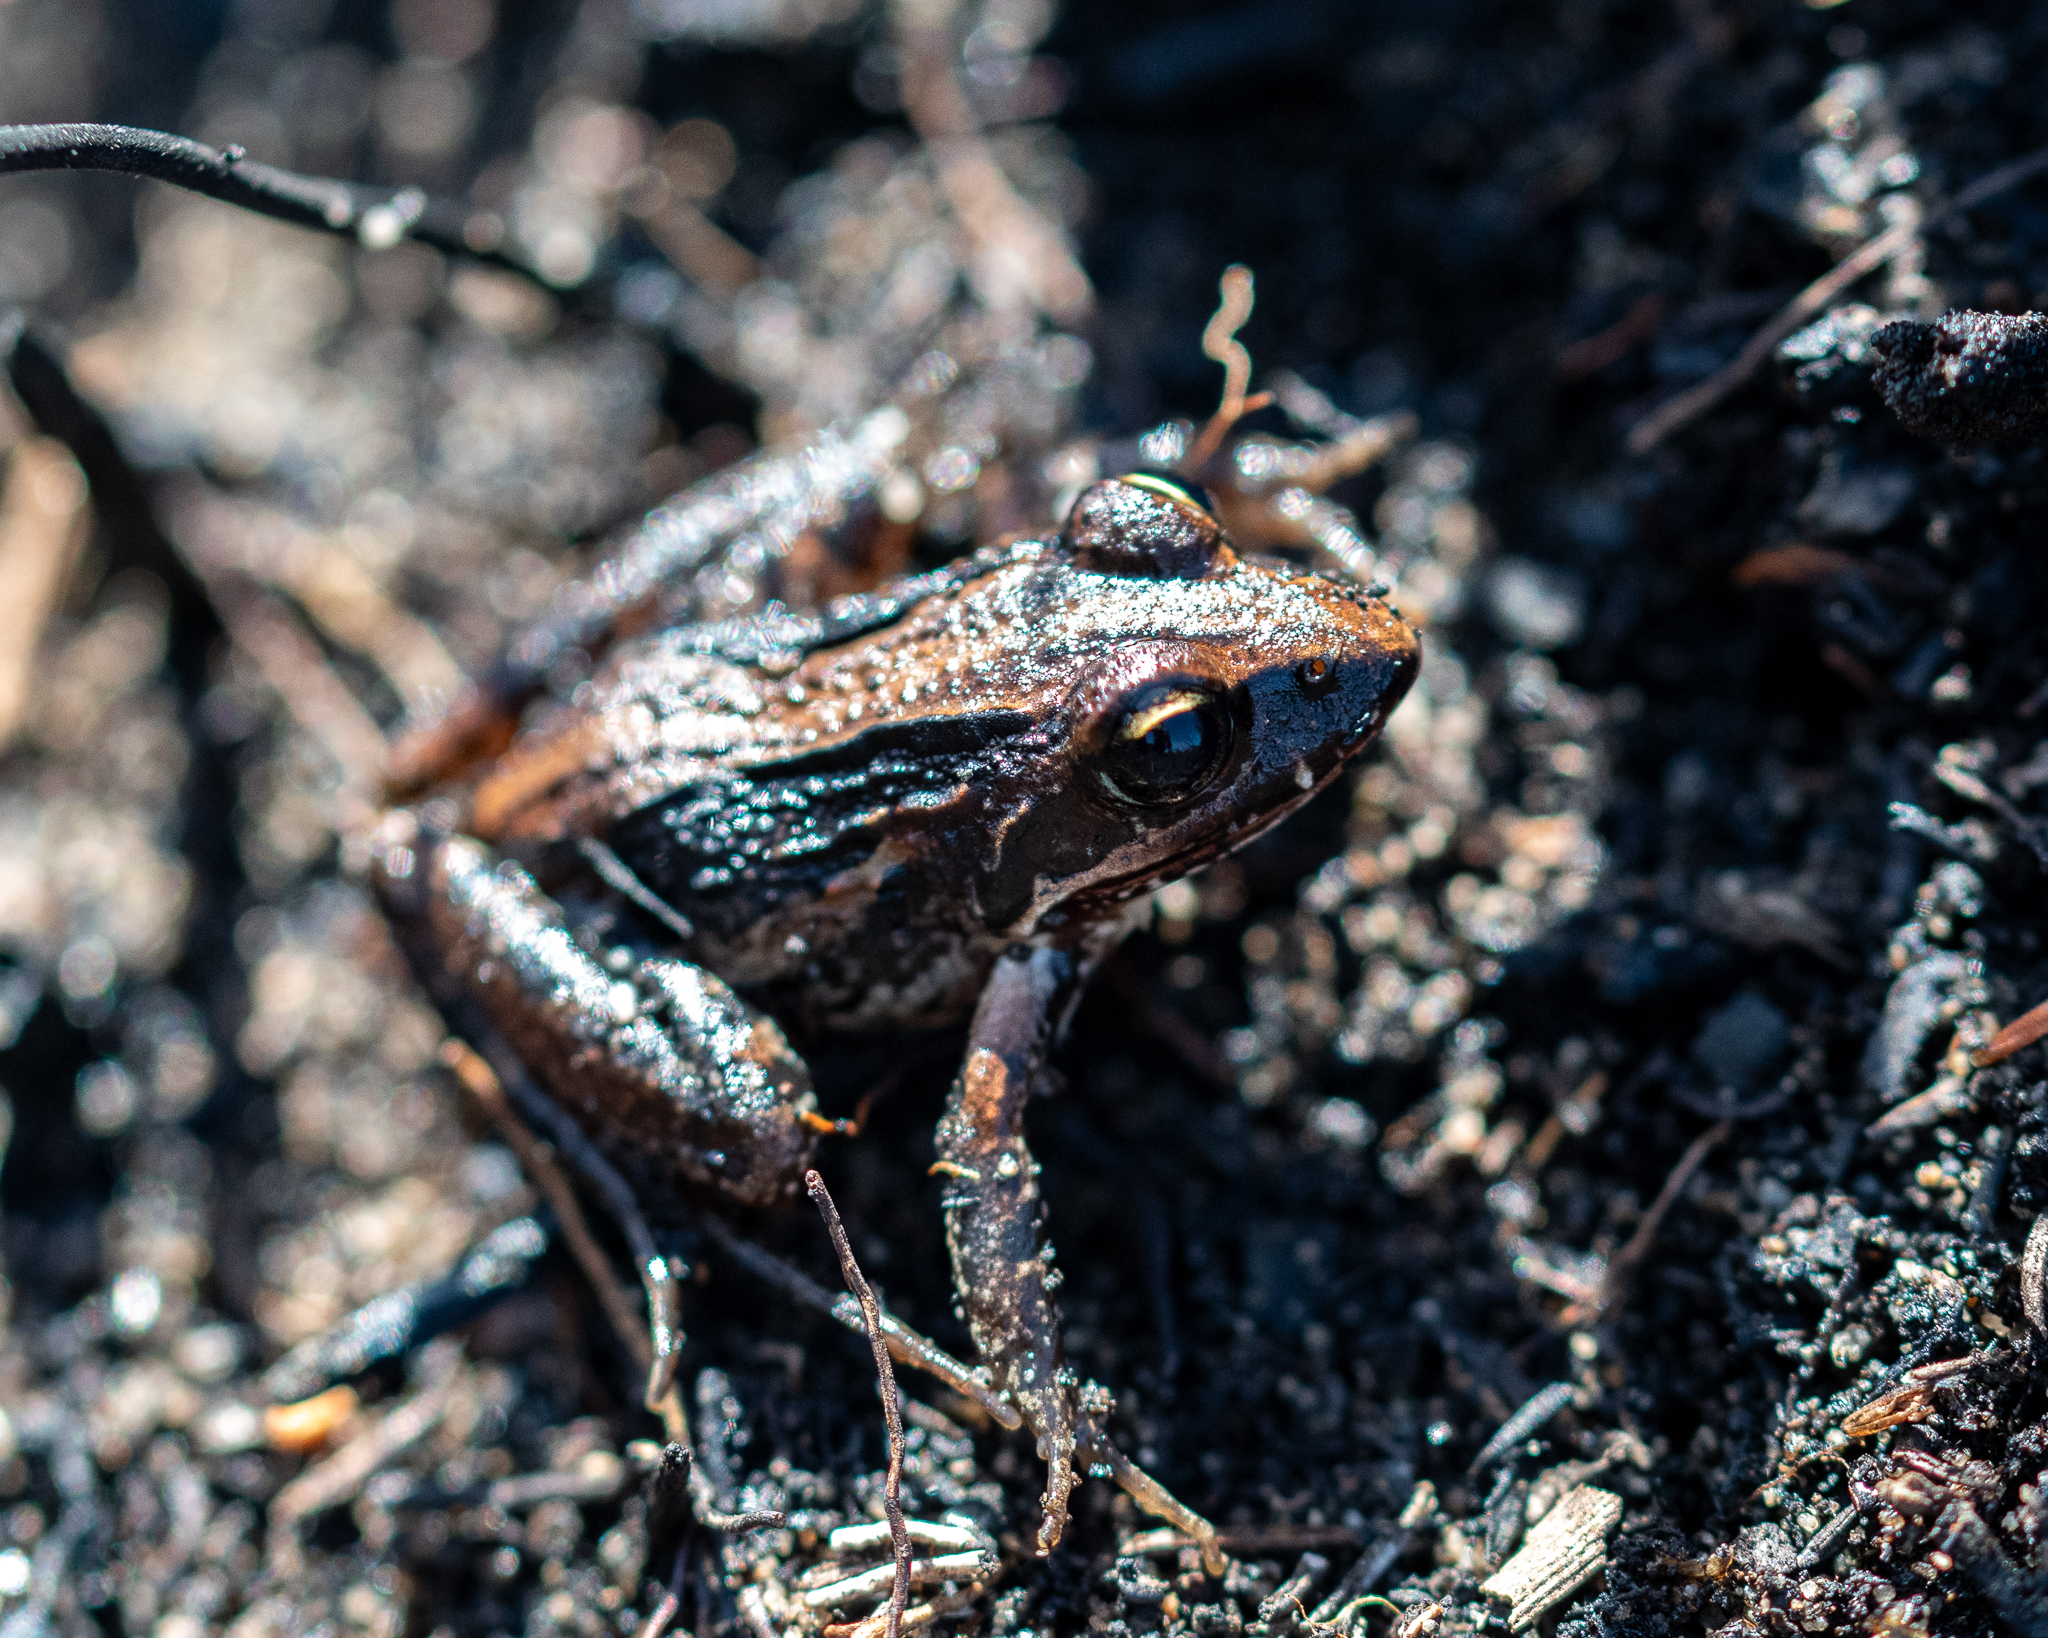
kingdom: Animalia
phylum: Chordata
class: Amphibia
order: Anura
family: Pyxicephalidae
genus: Strongylopus
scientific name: Strongylopus grayii
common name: Gray's stream frog
